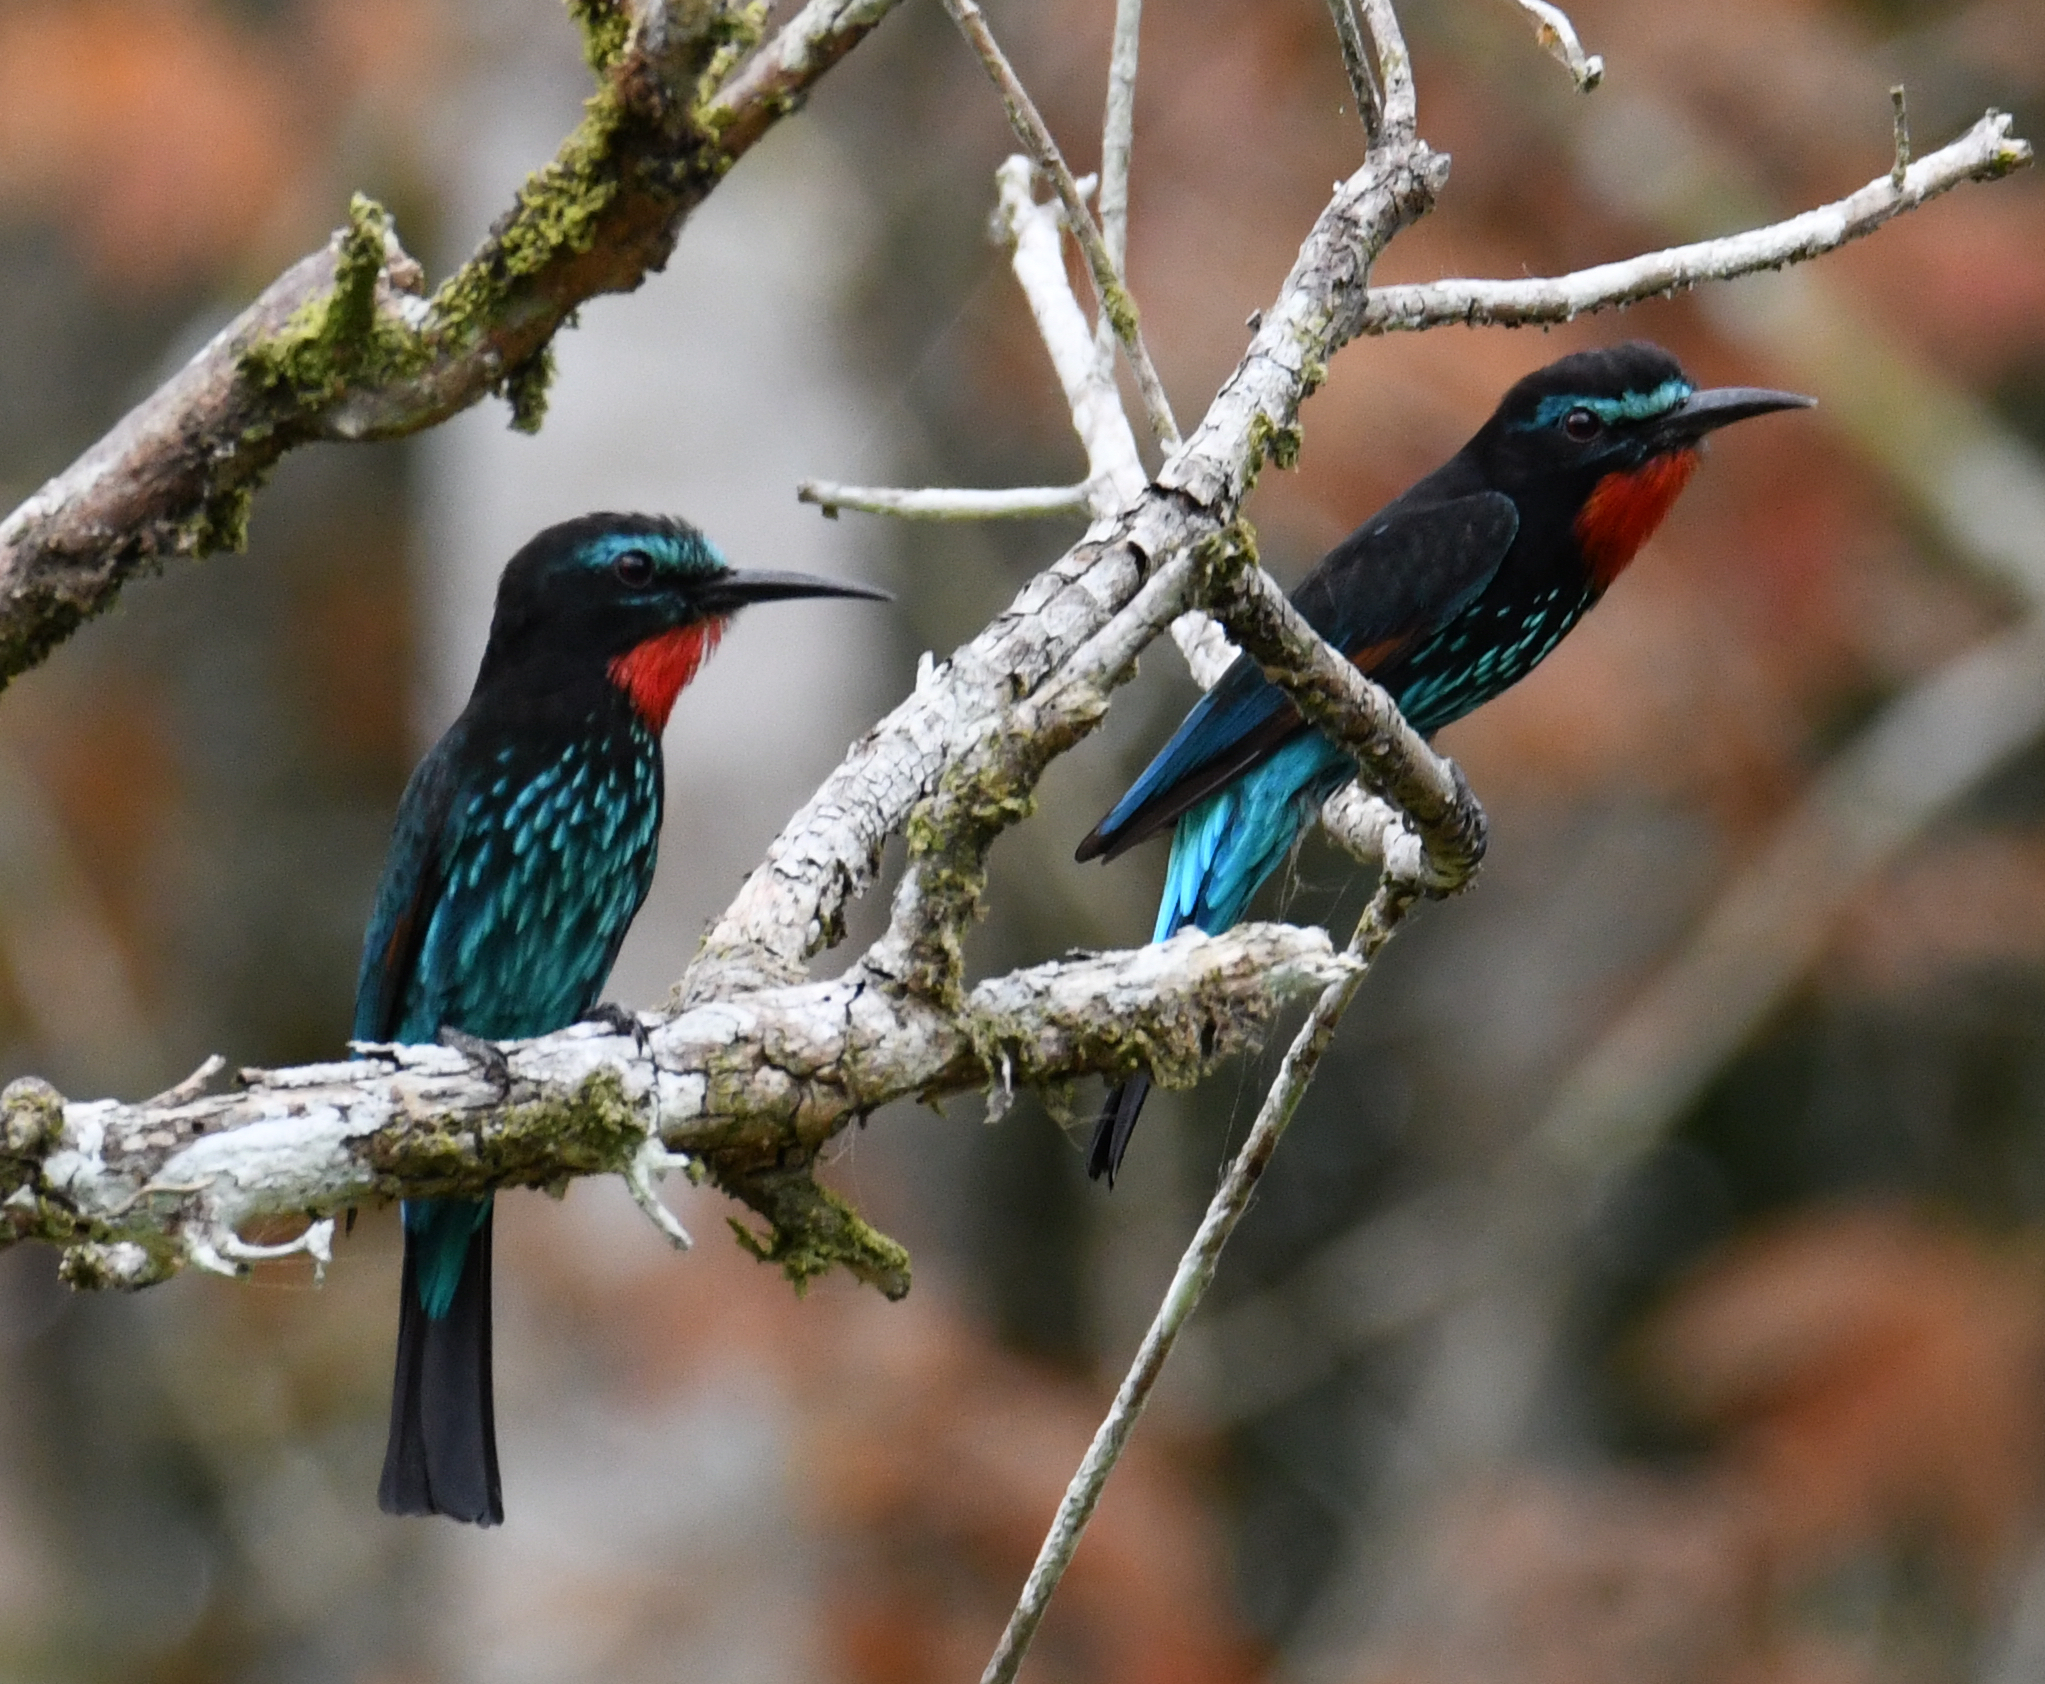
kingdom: Animalia
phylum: Chordata
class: Aves
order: Coraciiformes
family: Meropidae
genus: Merops
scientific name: Merops gularis
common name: Black bee-eater
